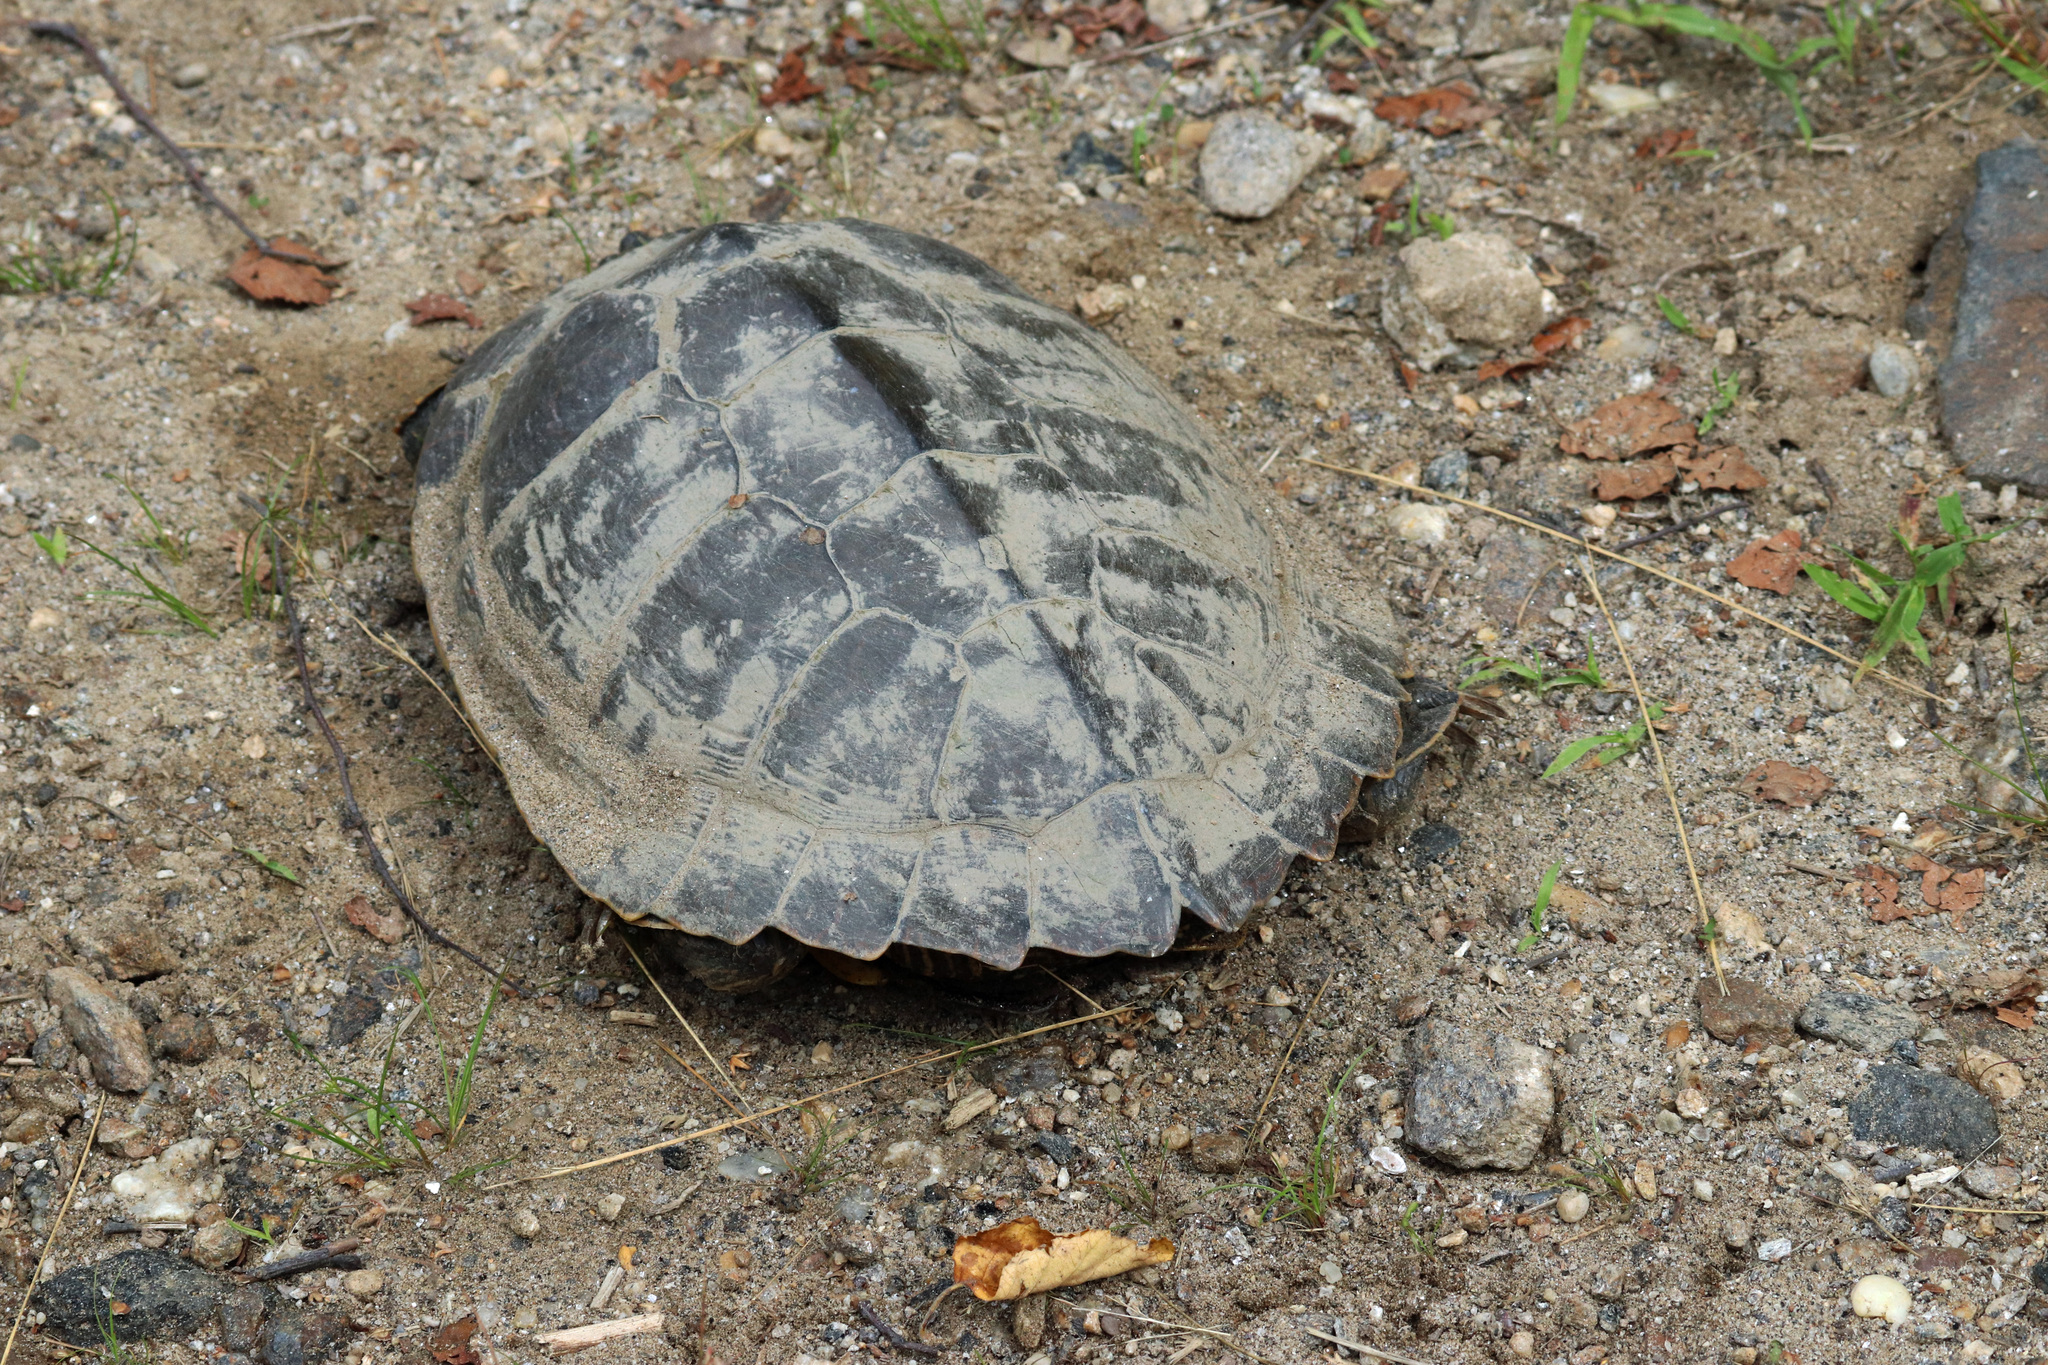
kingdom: Animalia
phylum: Chordata
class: Testudines
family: Emydidae
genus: Graptemys
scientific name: Graptemys geographica
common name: Common map turtle
